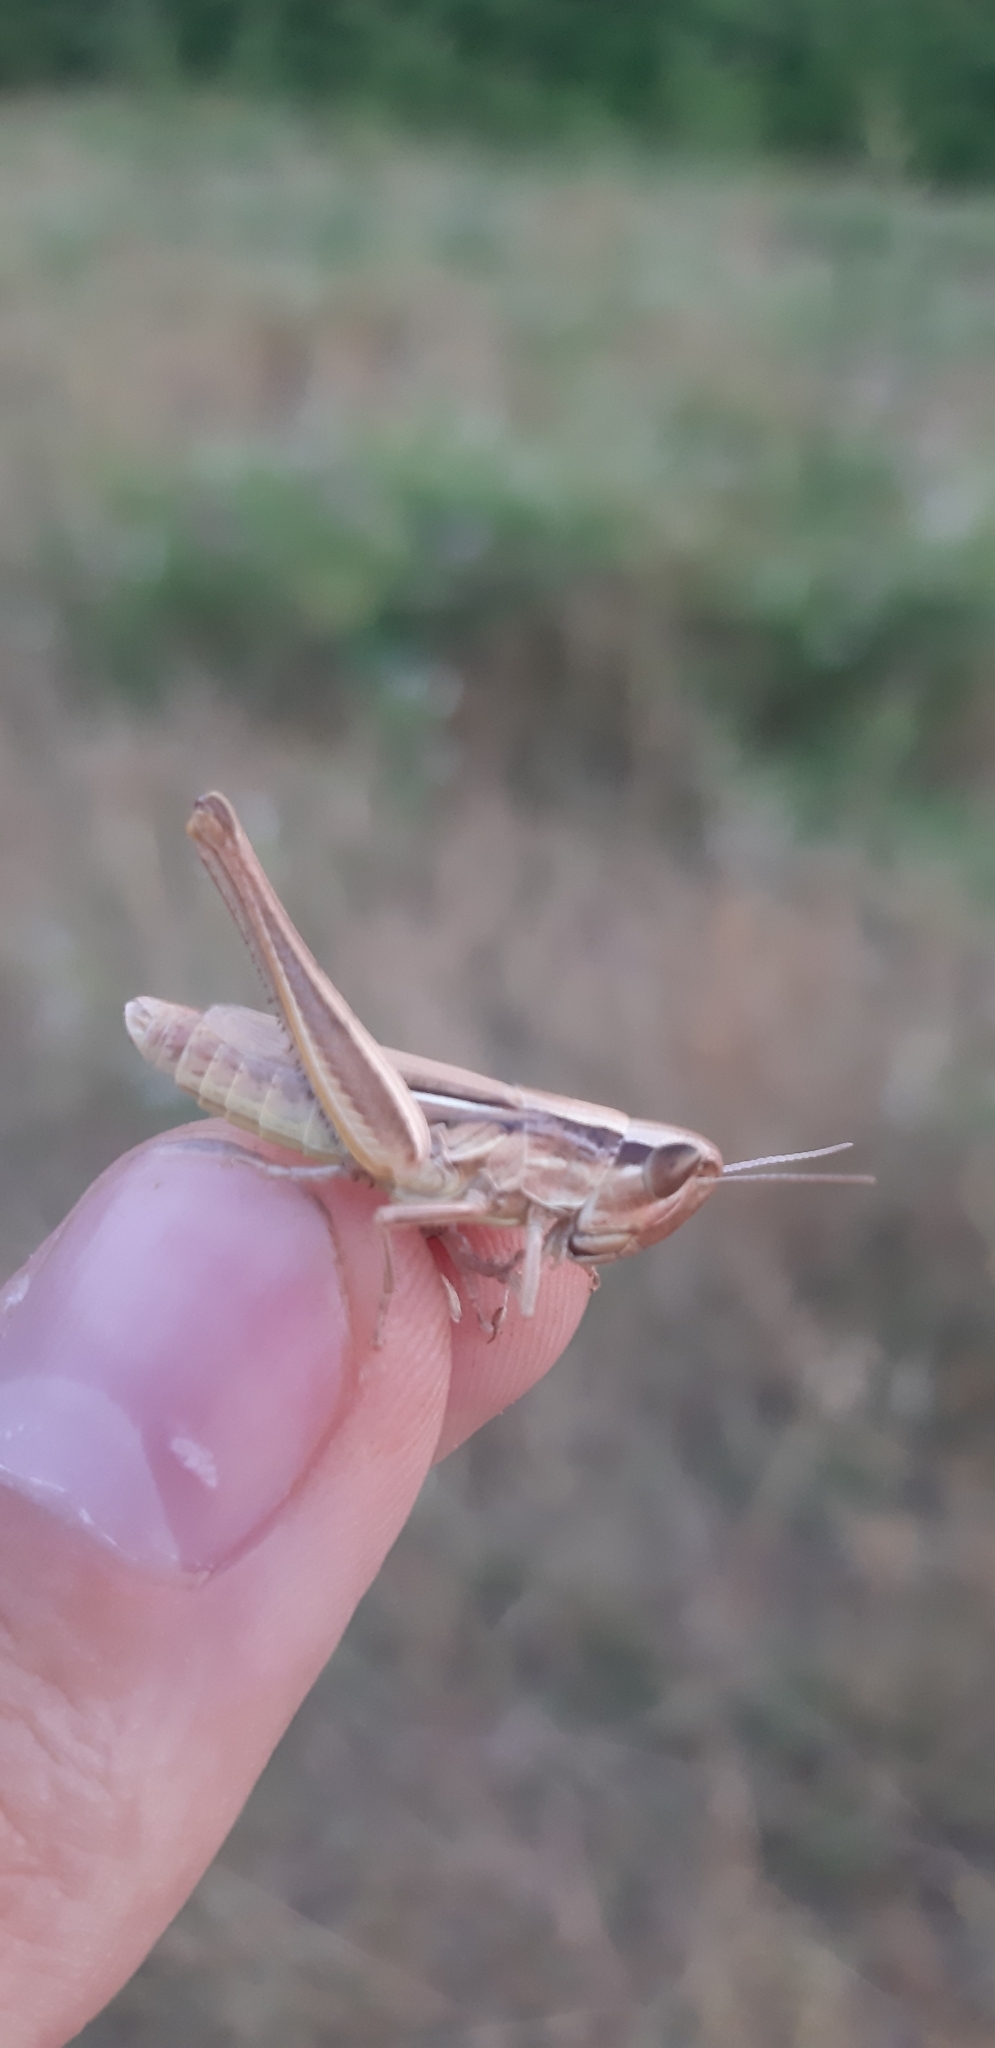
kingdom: Animalia
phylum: Arthropoda
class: Insecta
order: Orthoptera
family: Acrididae
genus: Euchorthippus
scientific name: Euchorthippus declivus
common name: Common straw grasshopper
